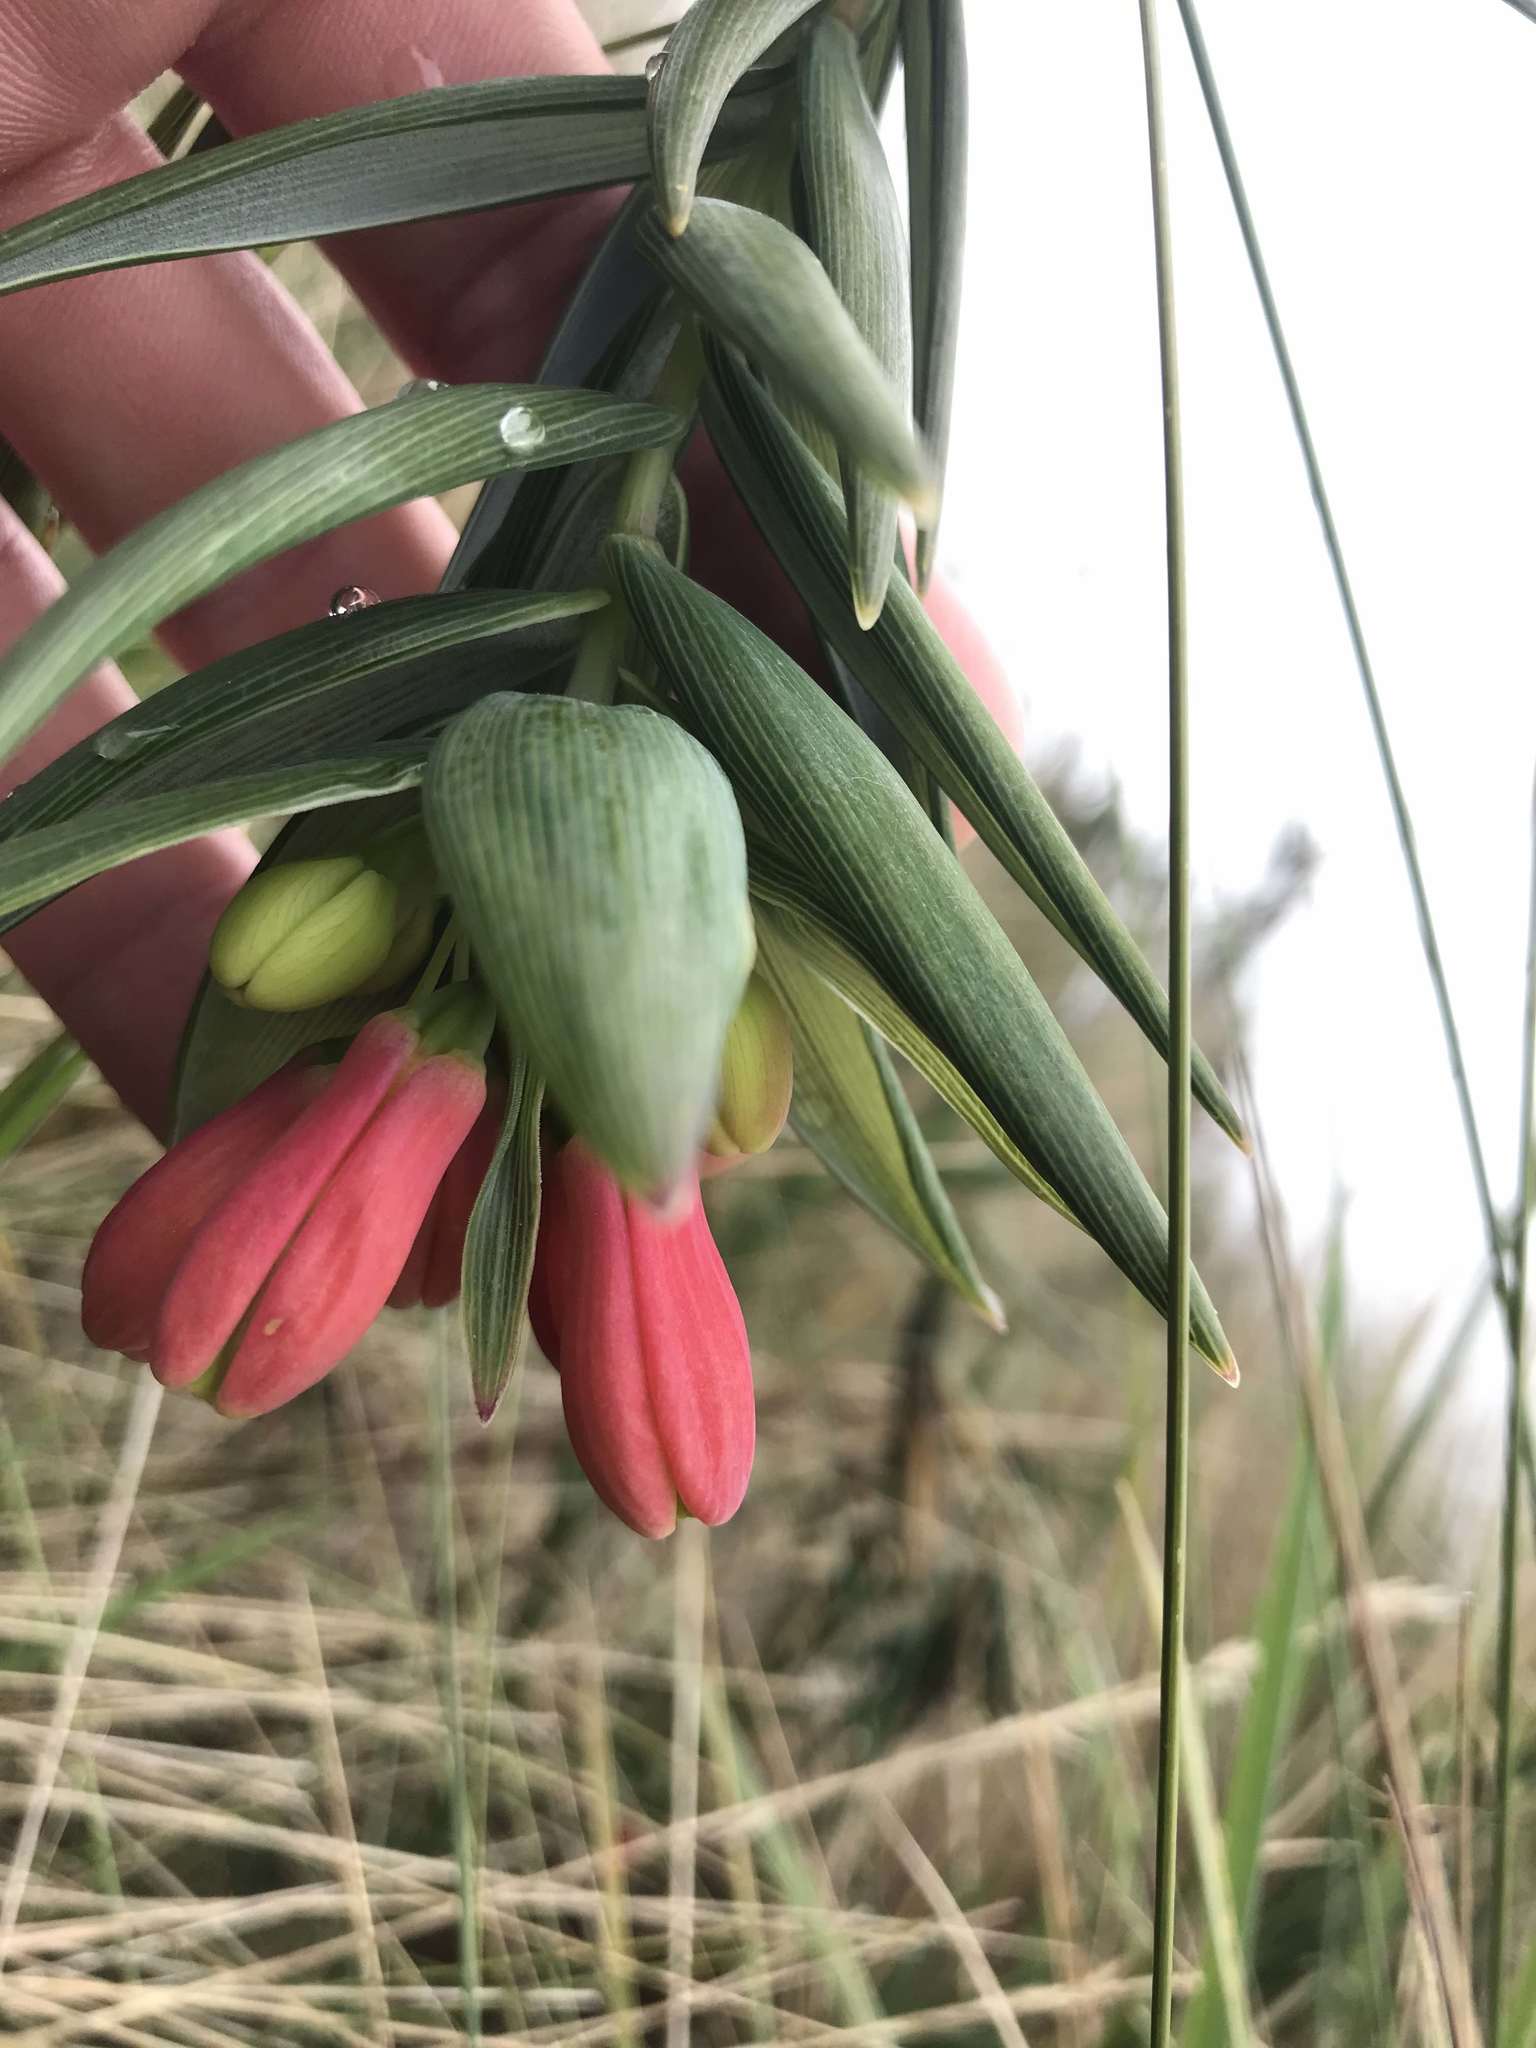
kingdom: Plantae
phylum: Tracheophyta
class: Liliopsida
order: Liliales
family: Alstroemeriaceae
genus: Bomarea
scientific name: Bomarea glaucescens
